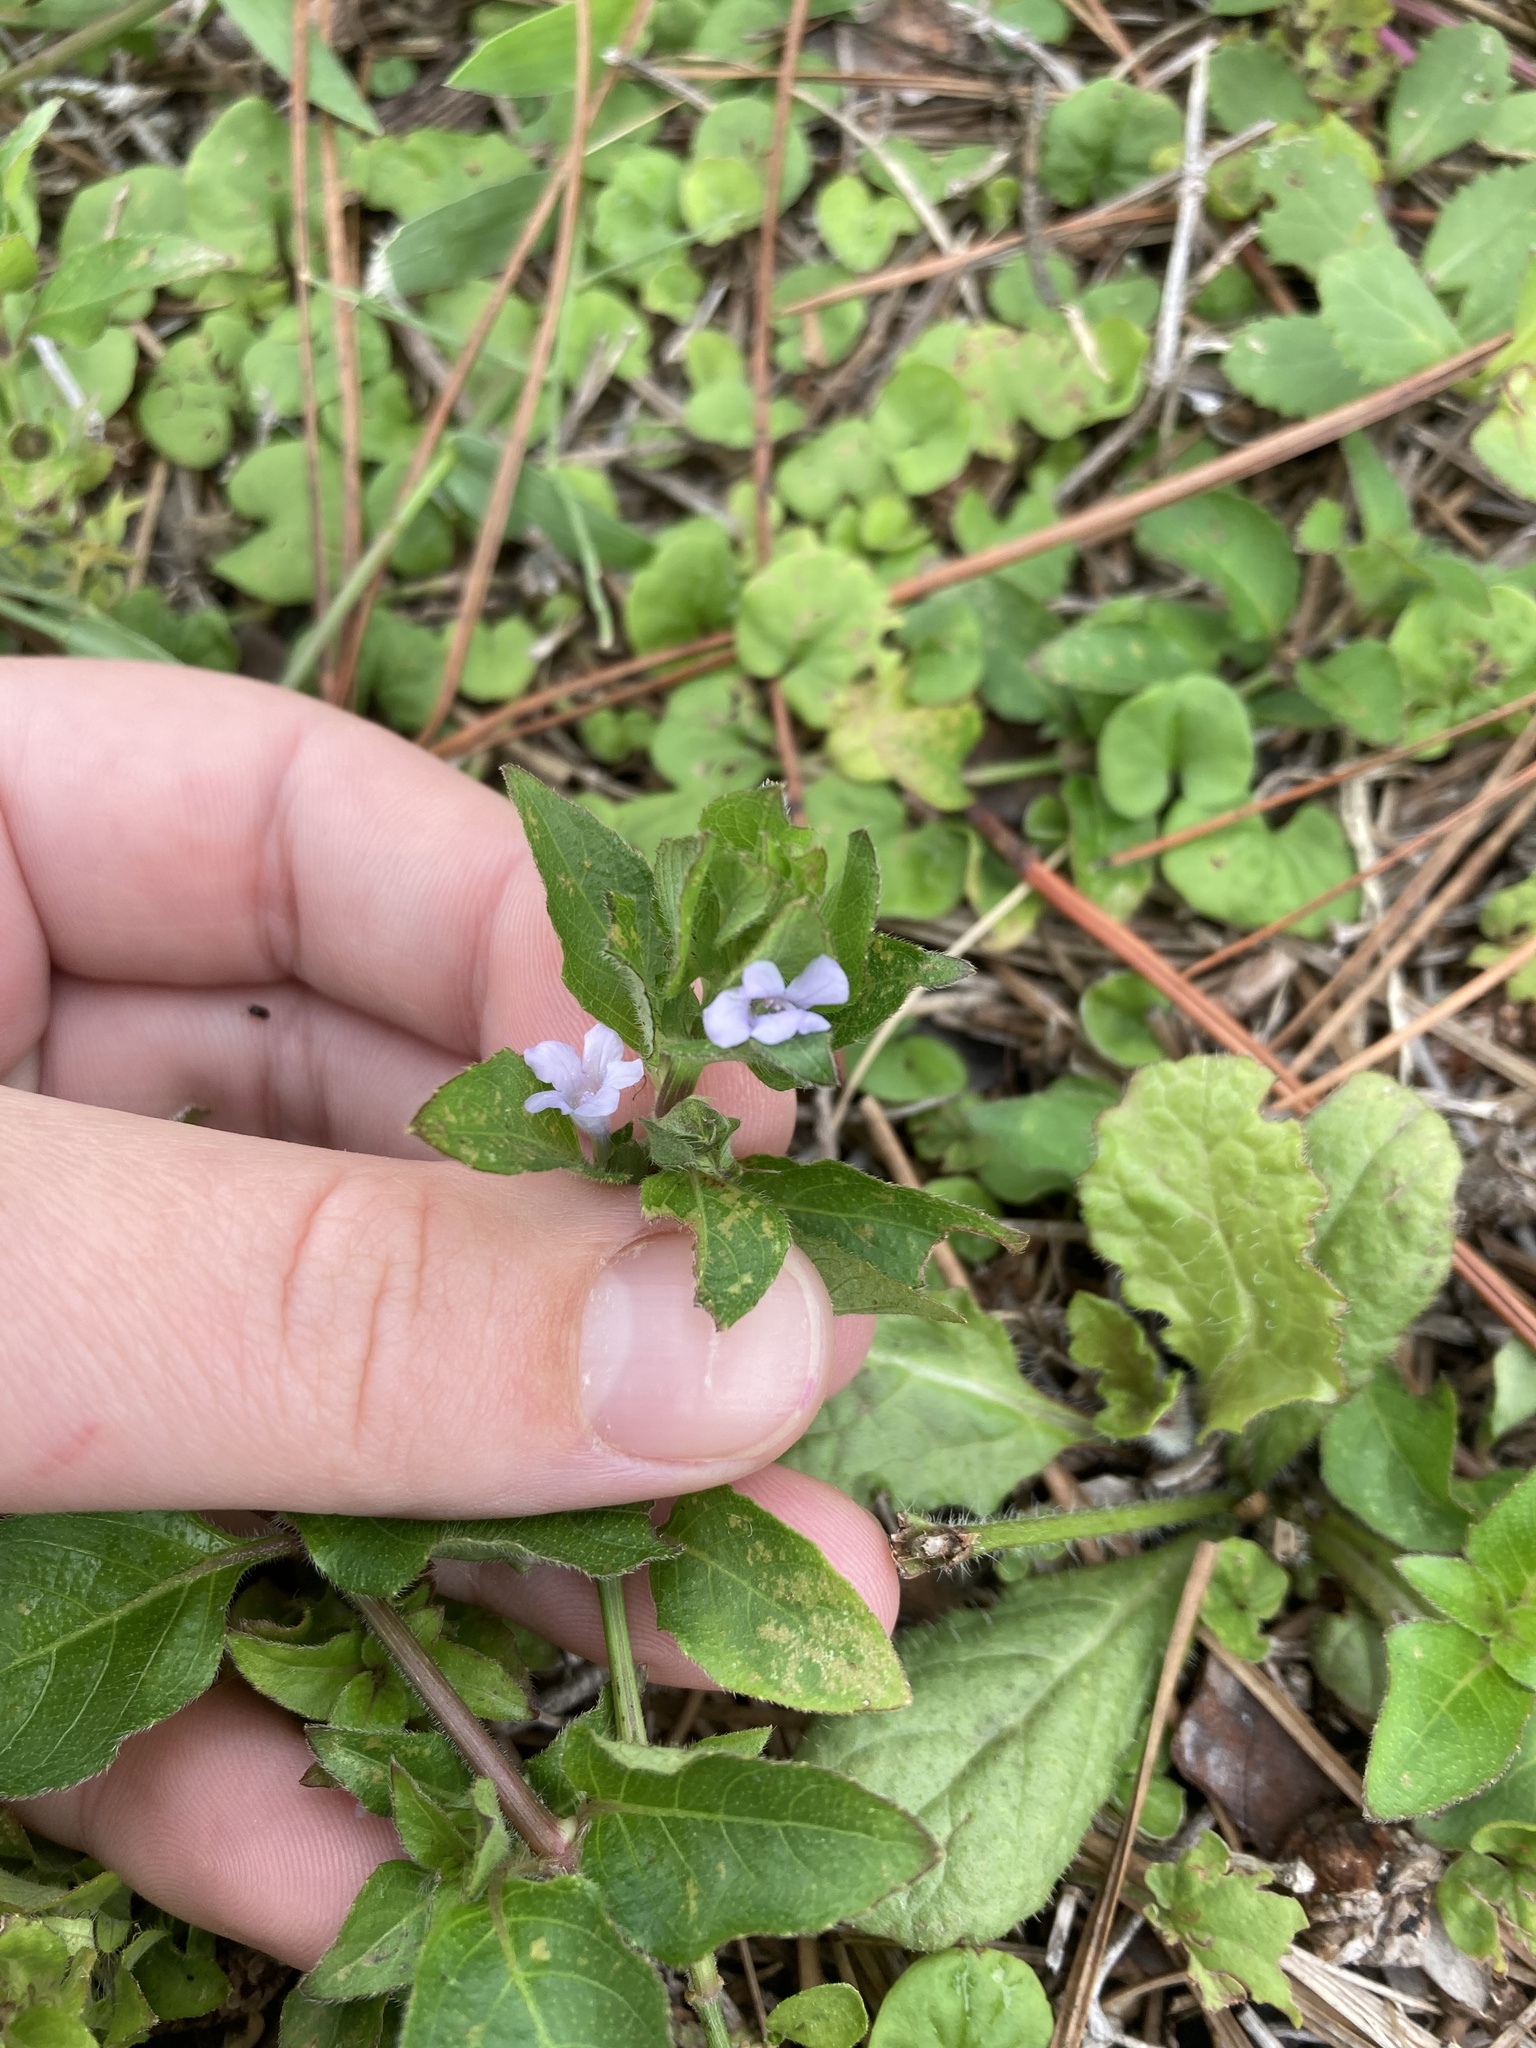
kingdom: Plantae
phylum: Tracheophyta
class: Magnoliopsida
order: Lamiales
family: Acanthaceae
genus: Ruellia
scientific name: Ruellia blechum
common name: Browne's blechum
